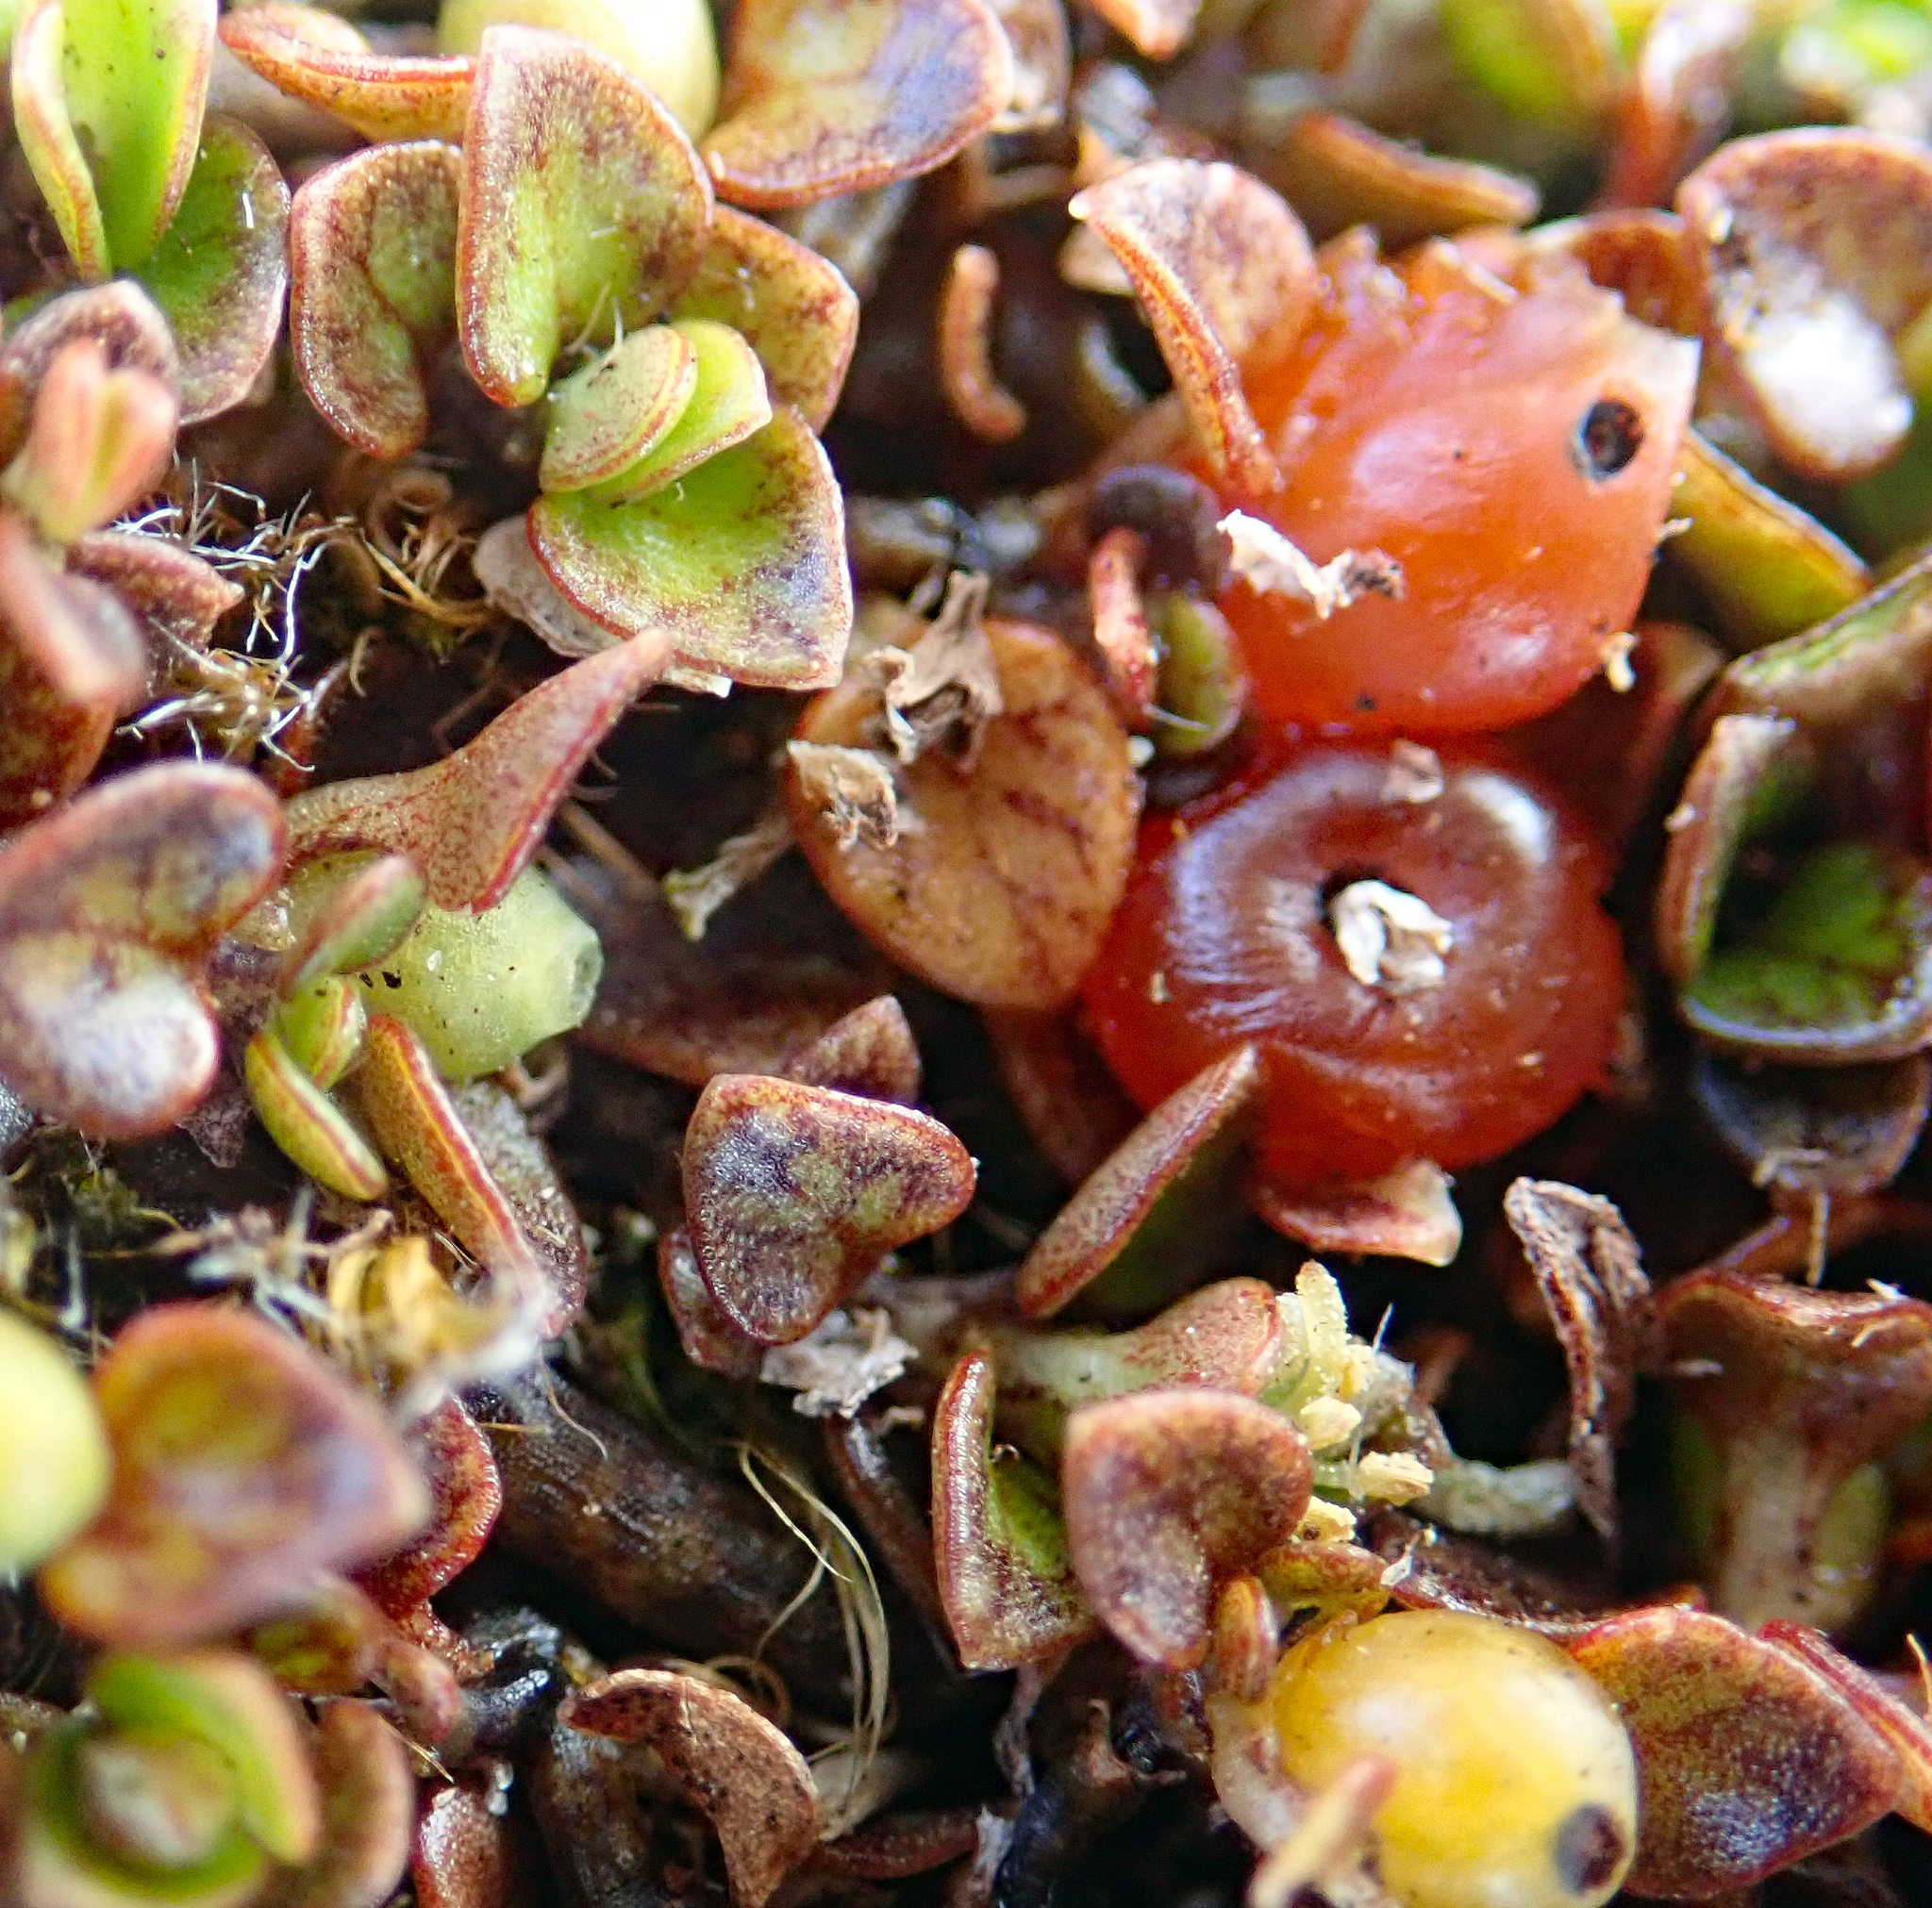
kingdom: Plantae
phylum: Tracheophyta
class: Magnoliopsida
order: Gentianales
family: Rubiaceae
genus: Nertera
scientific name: Nertera granadensis
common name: Beadplant
